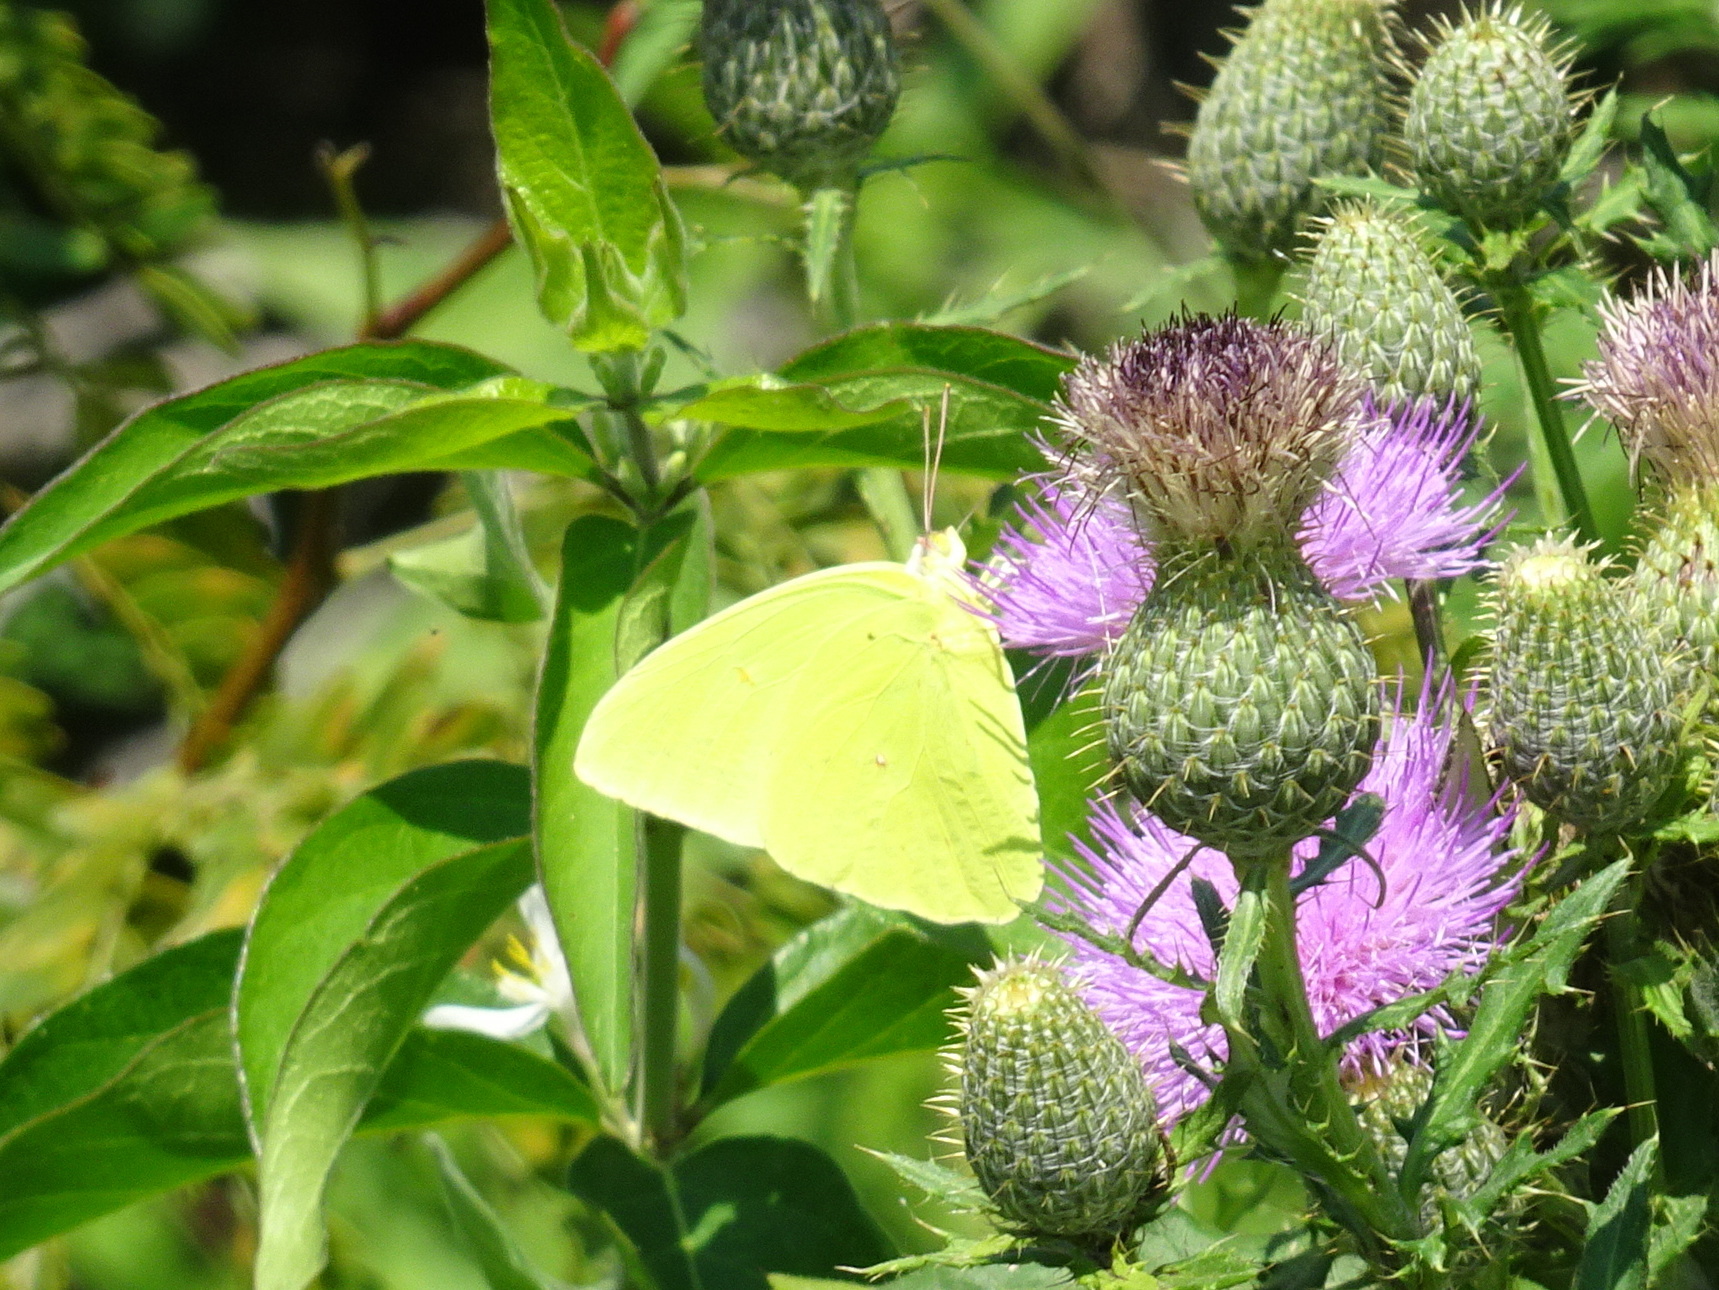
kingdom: Animalia
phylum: Arthropoda
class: Insecta
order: Lepidoptera
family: Pieridae
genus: Phoebis
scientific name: Phoebis sennae
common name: Cloudless sulphur
